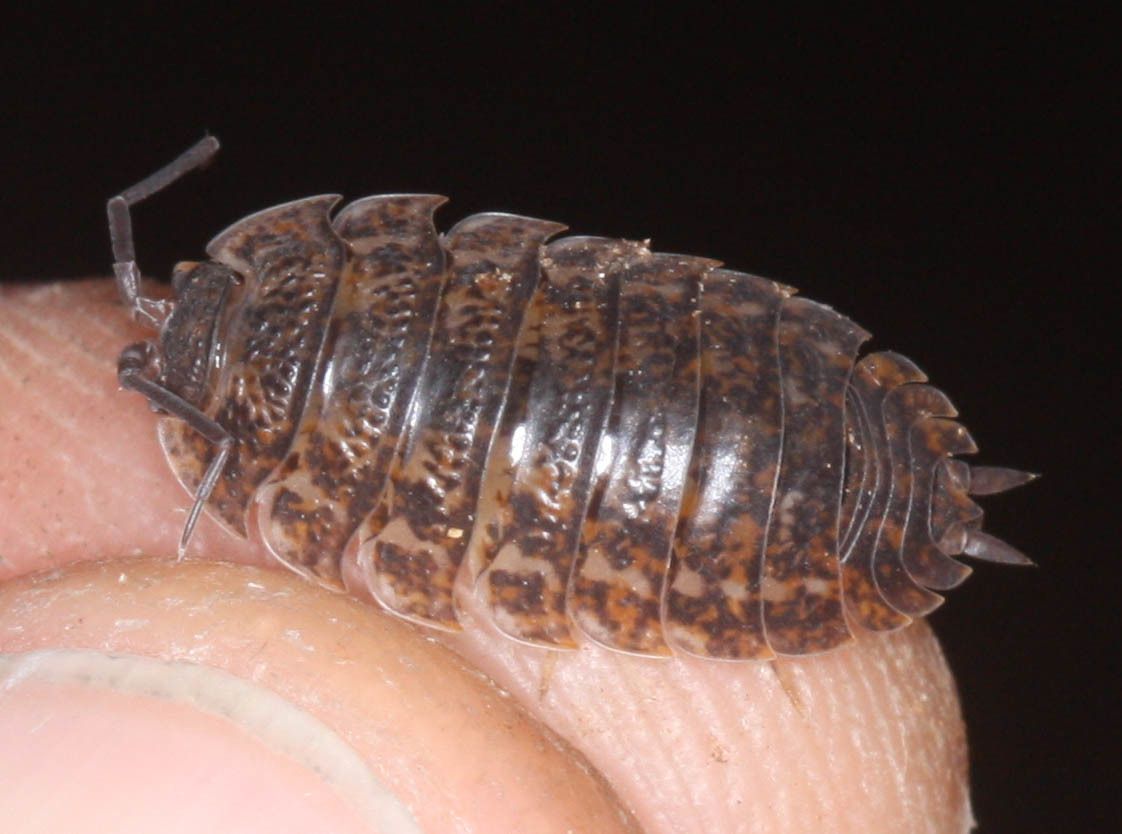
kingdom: Animalia
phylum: Arthropoda
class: Malacostraca
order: Isopoda
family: Trachelipodidae
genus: Trachelipus
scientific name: Trachelipus rathkii
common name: Isopod
